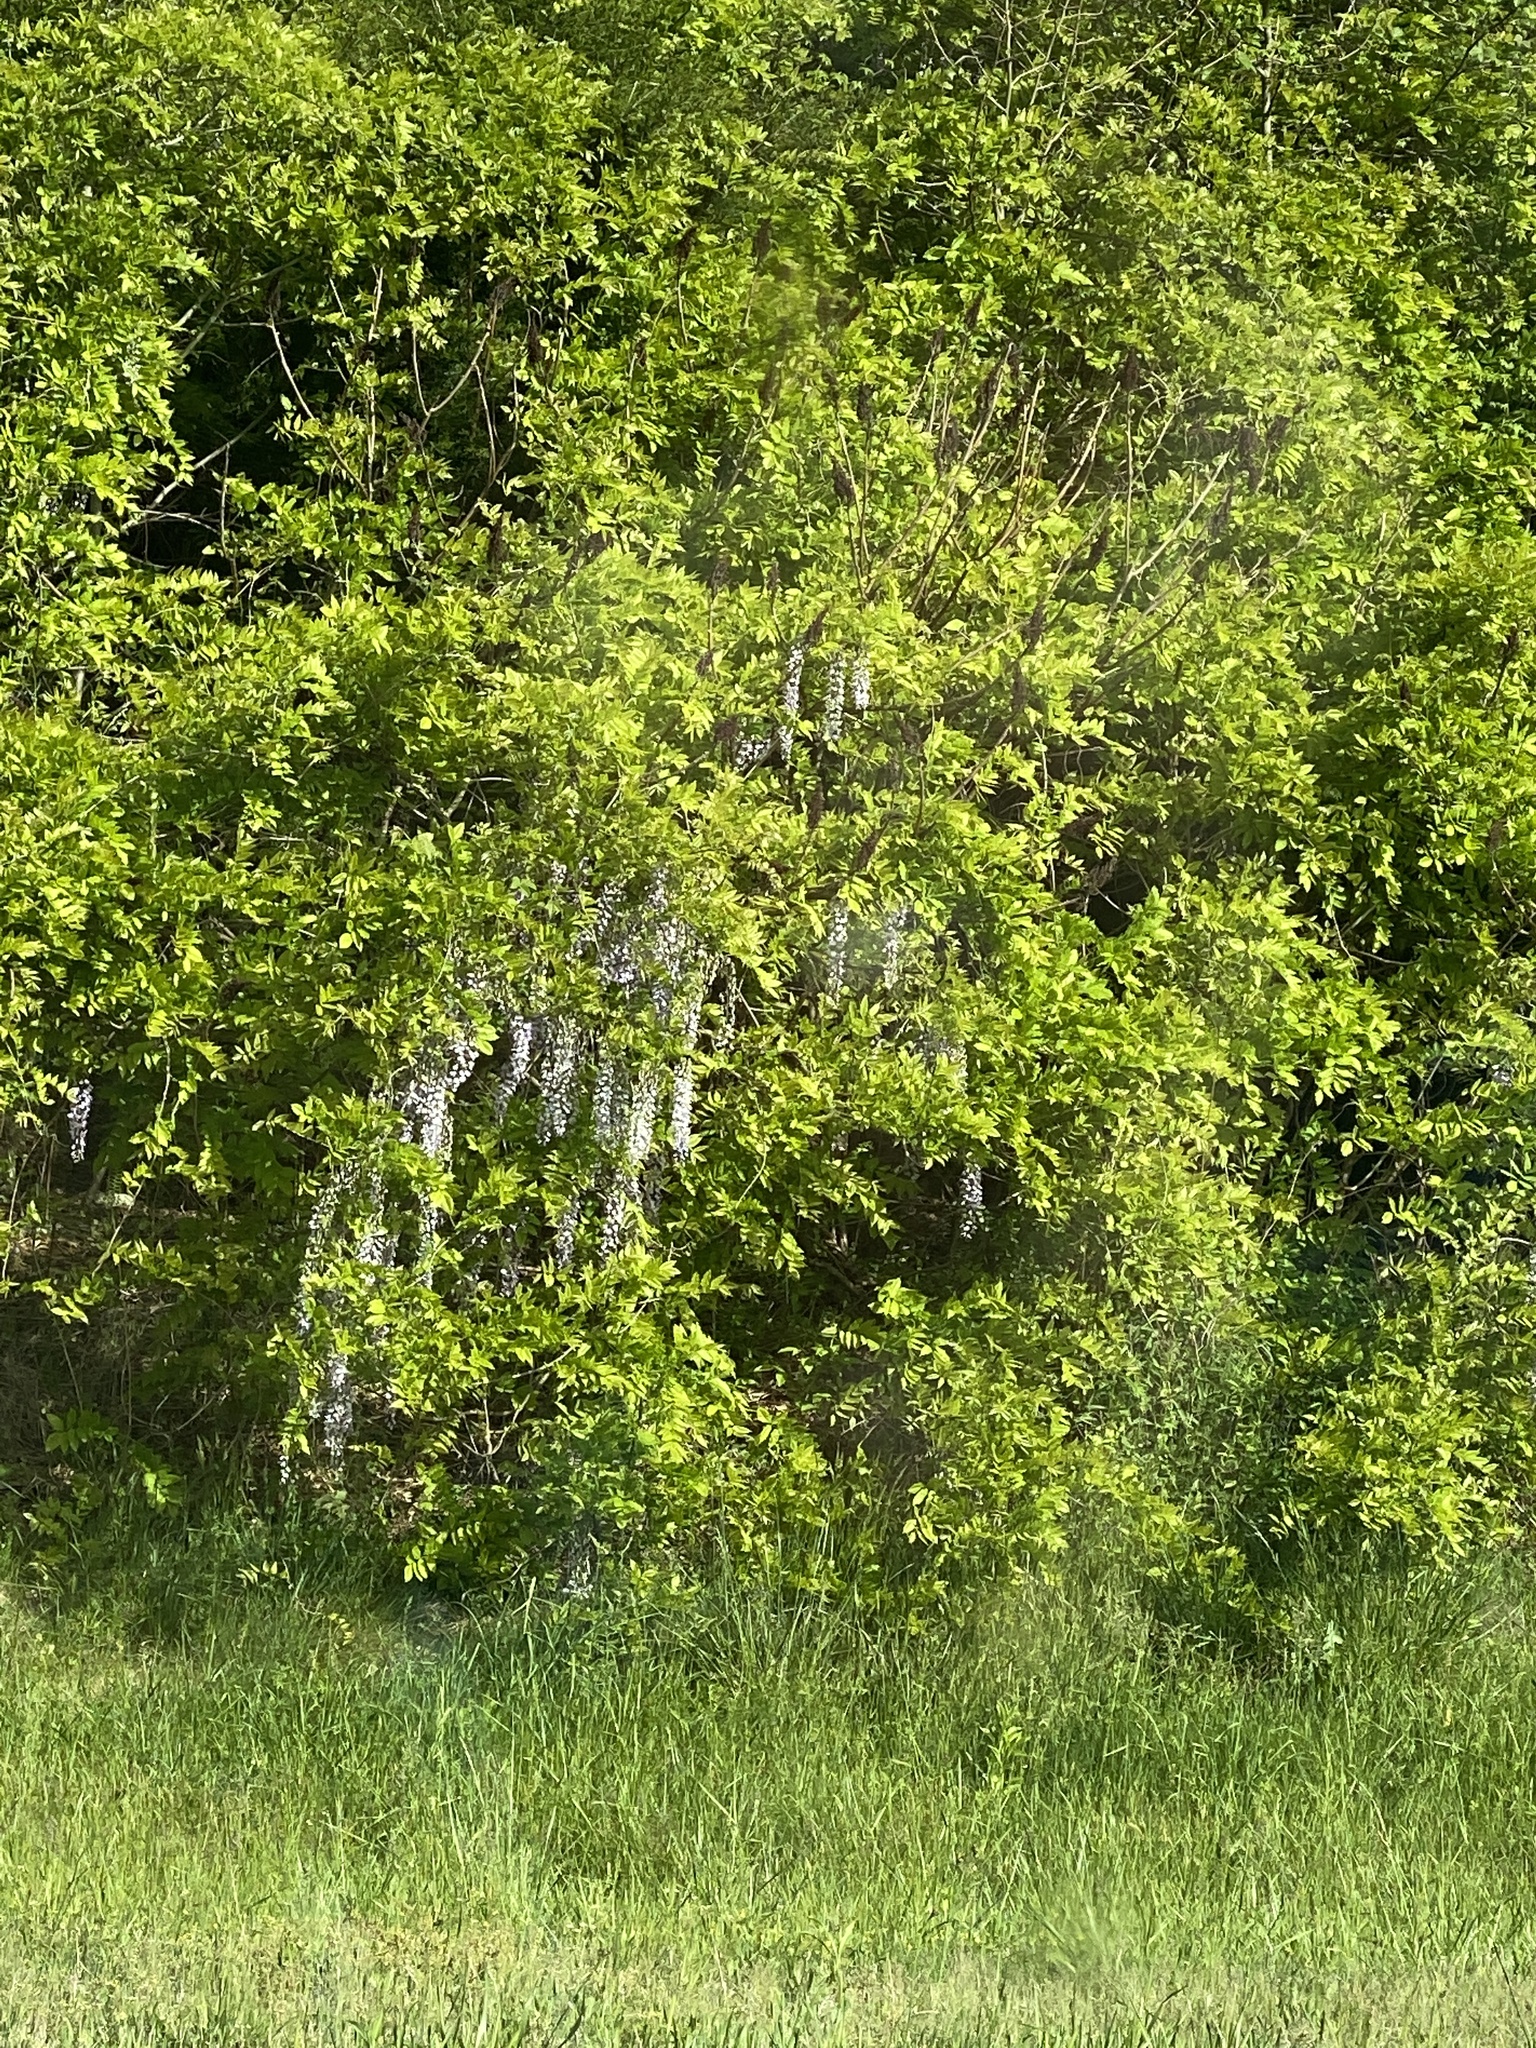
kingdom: Plantae
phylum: Tracheophyta
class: Magnoliopsida
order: Fabales
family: Fabaceae
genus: Wisteria
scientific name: Wisteria sinensis
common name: Chinese wisteria
